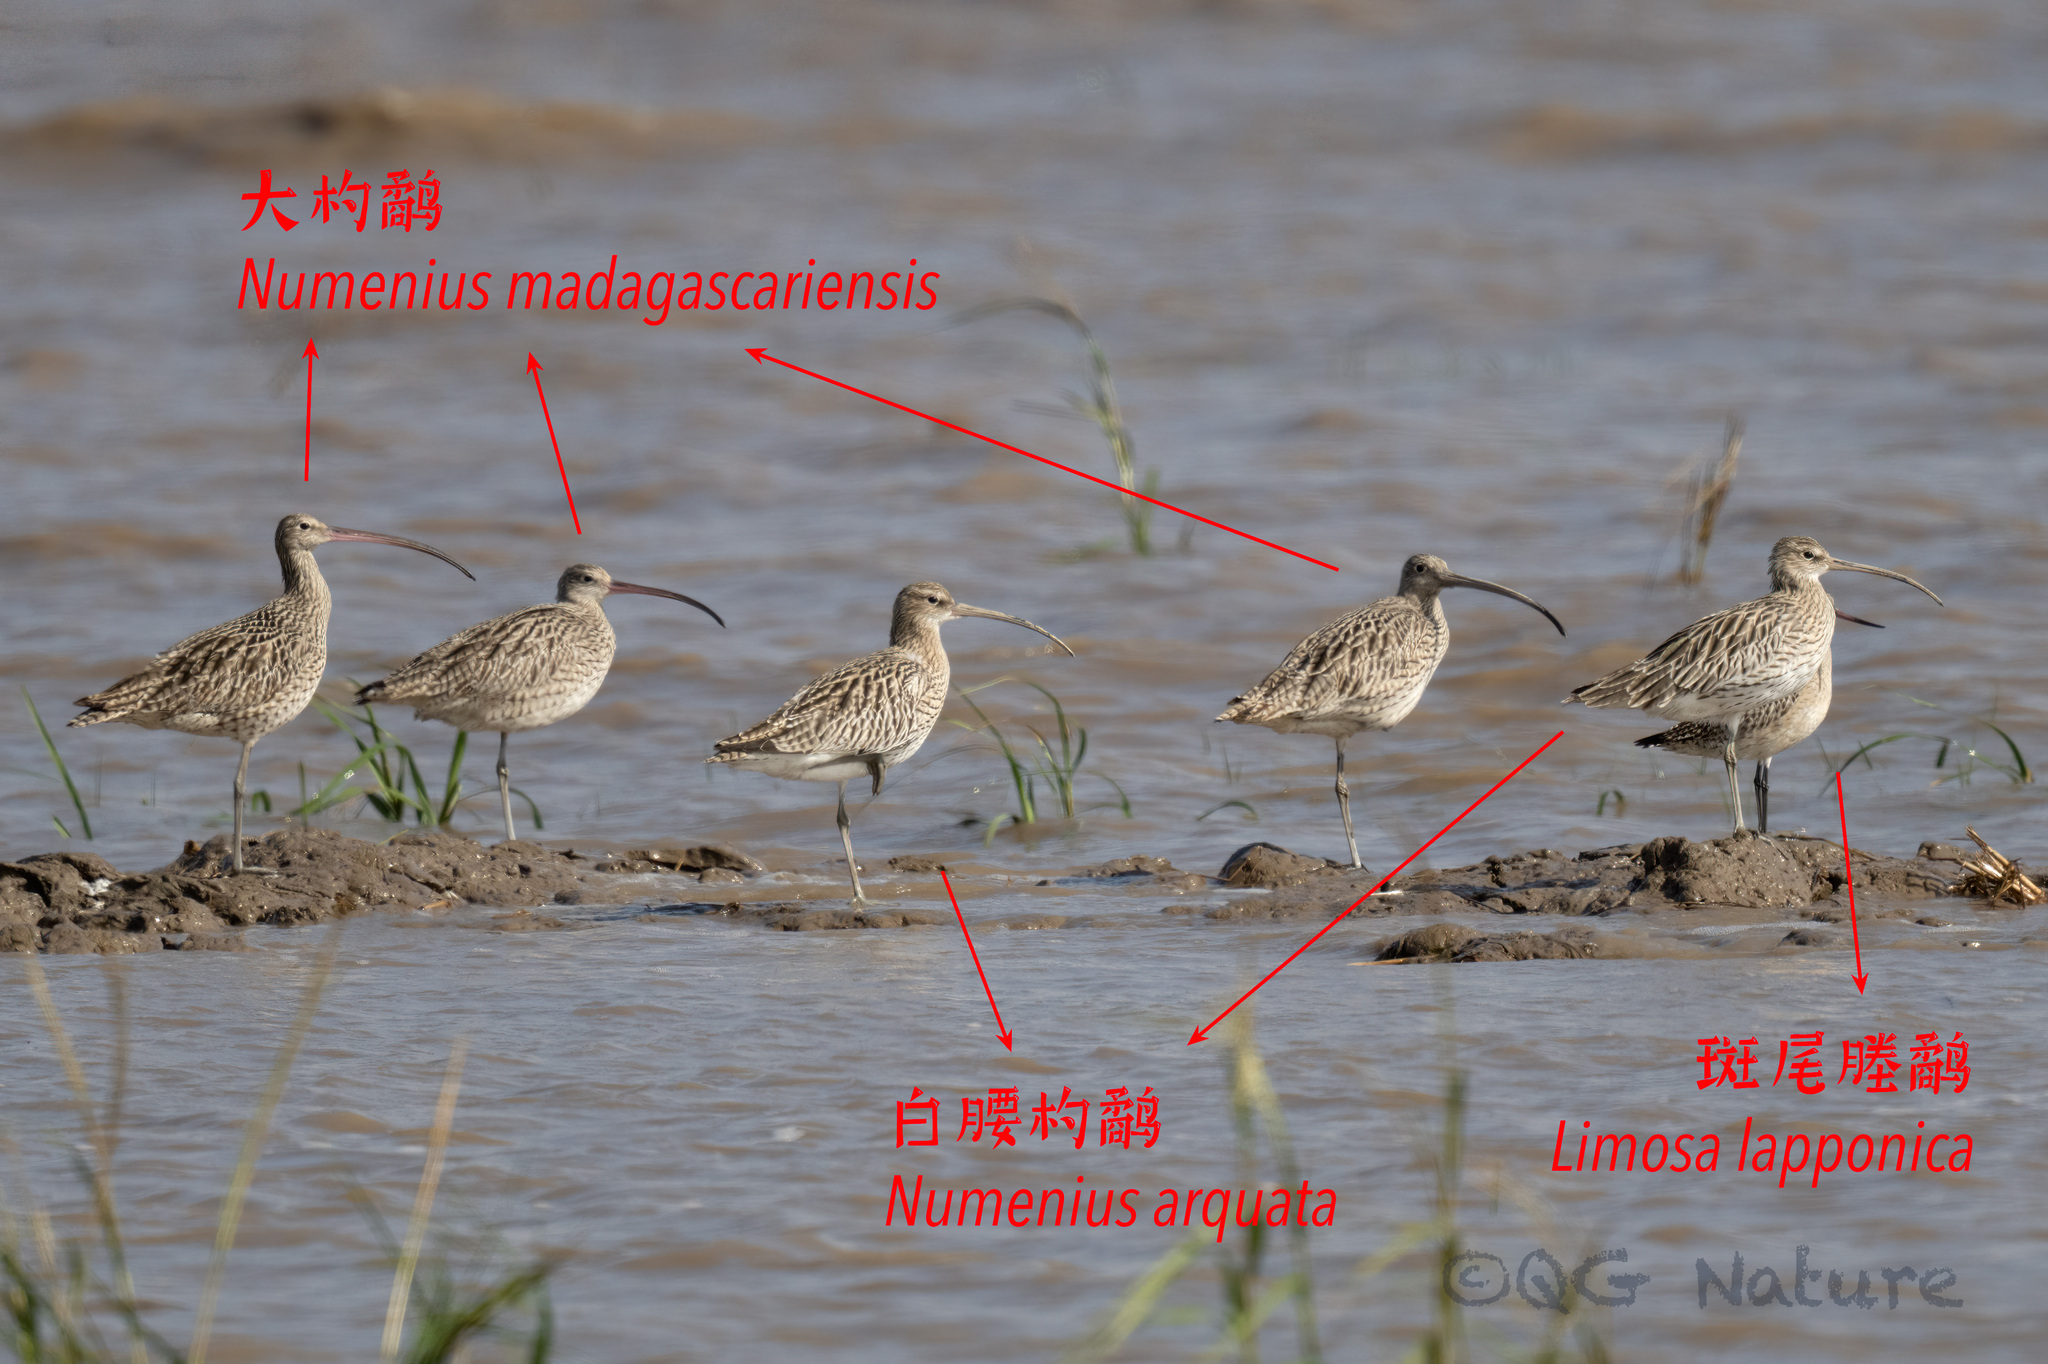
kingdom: Animalia
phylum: Chordata
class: Aves
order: Charadriiformes
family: Scolopacidae
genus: Numenius
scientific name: Numenius madagascariensis
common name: Far eastern curlew
